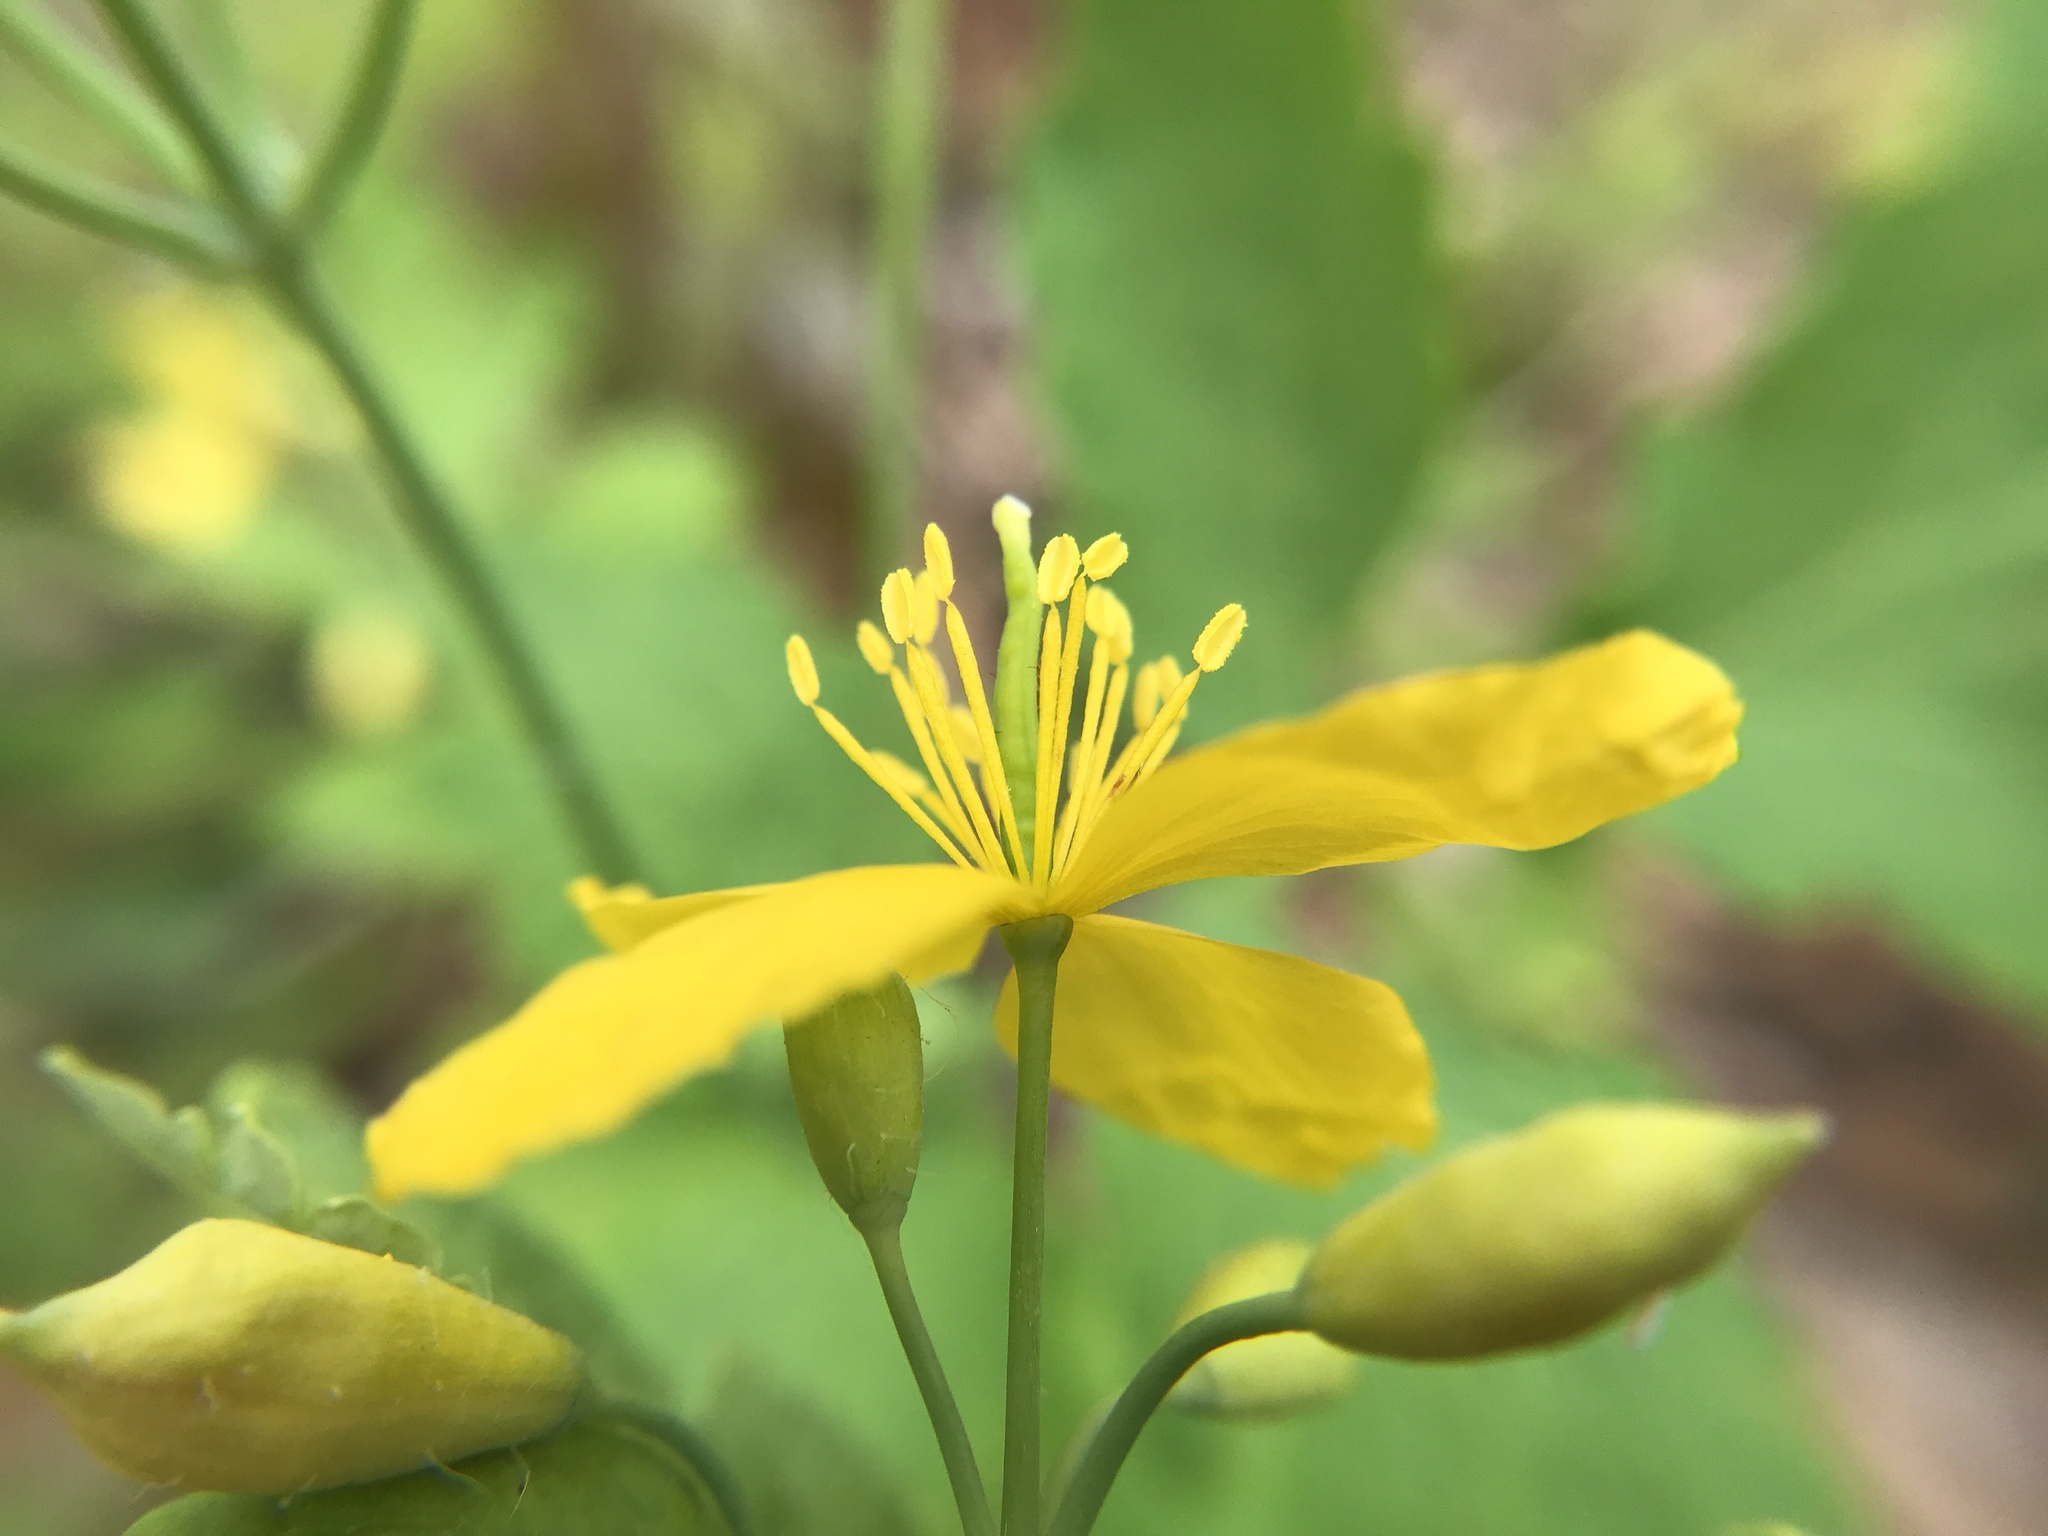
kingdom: Plantae
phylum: Tracheophyta
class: Magnoliopsida
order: Ranunculales
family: Papaveraceae
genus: Chelidonium
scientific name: Chelidonium majus
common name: Greater celandine
